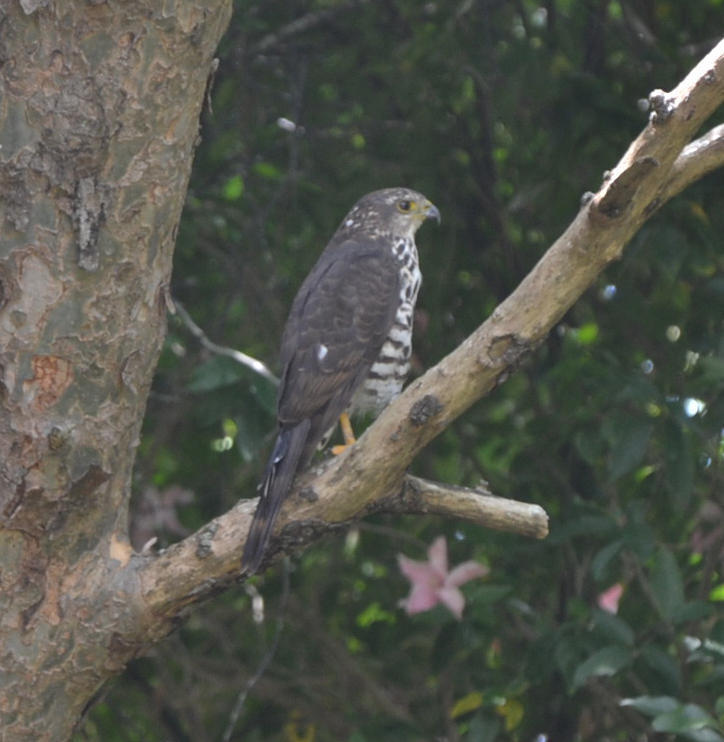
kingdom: Animalia
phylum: Chordata
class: Aves
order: Accipitriformes
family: Accipitridae
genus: Accipiter
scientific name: Accipiter tachiro
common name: African goshawk
